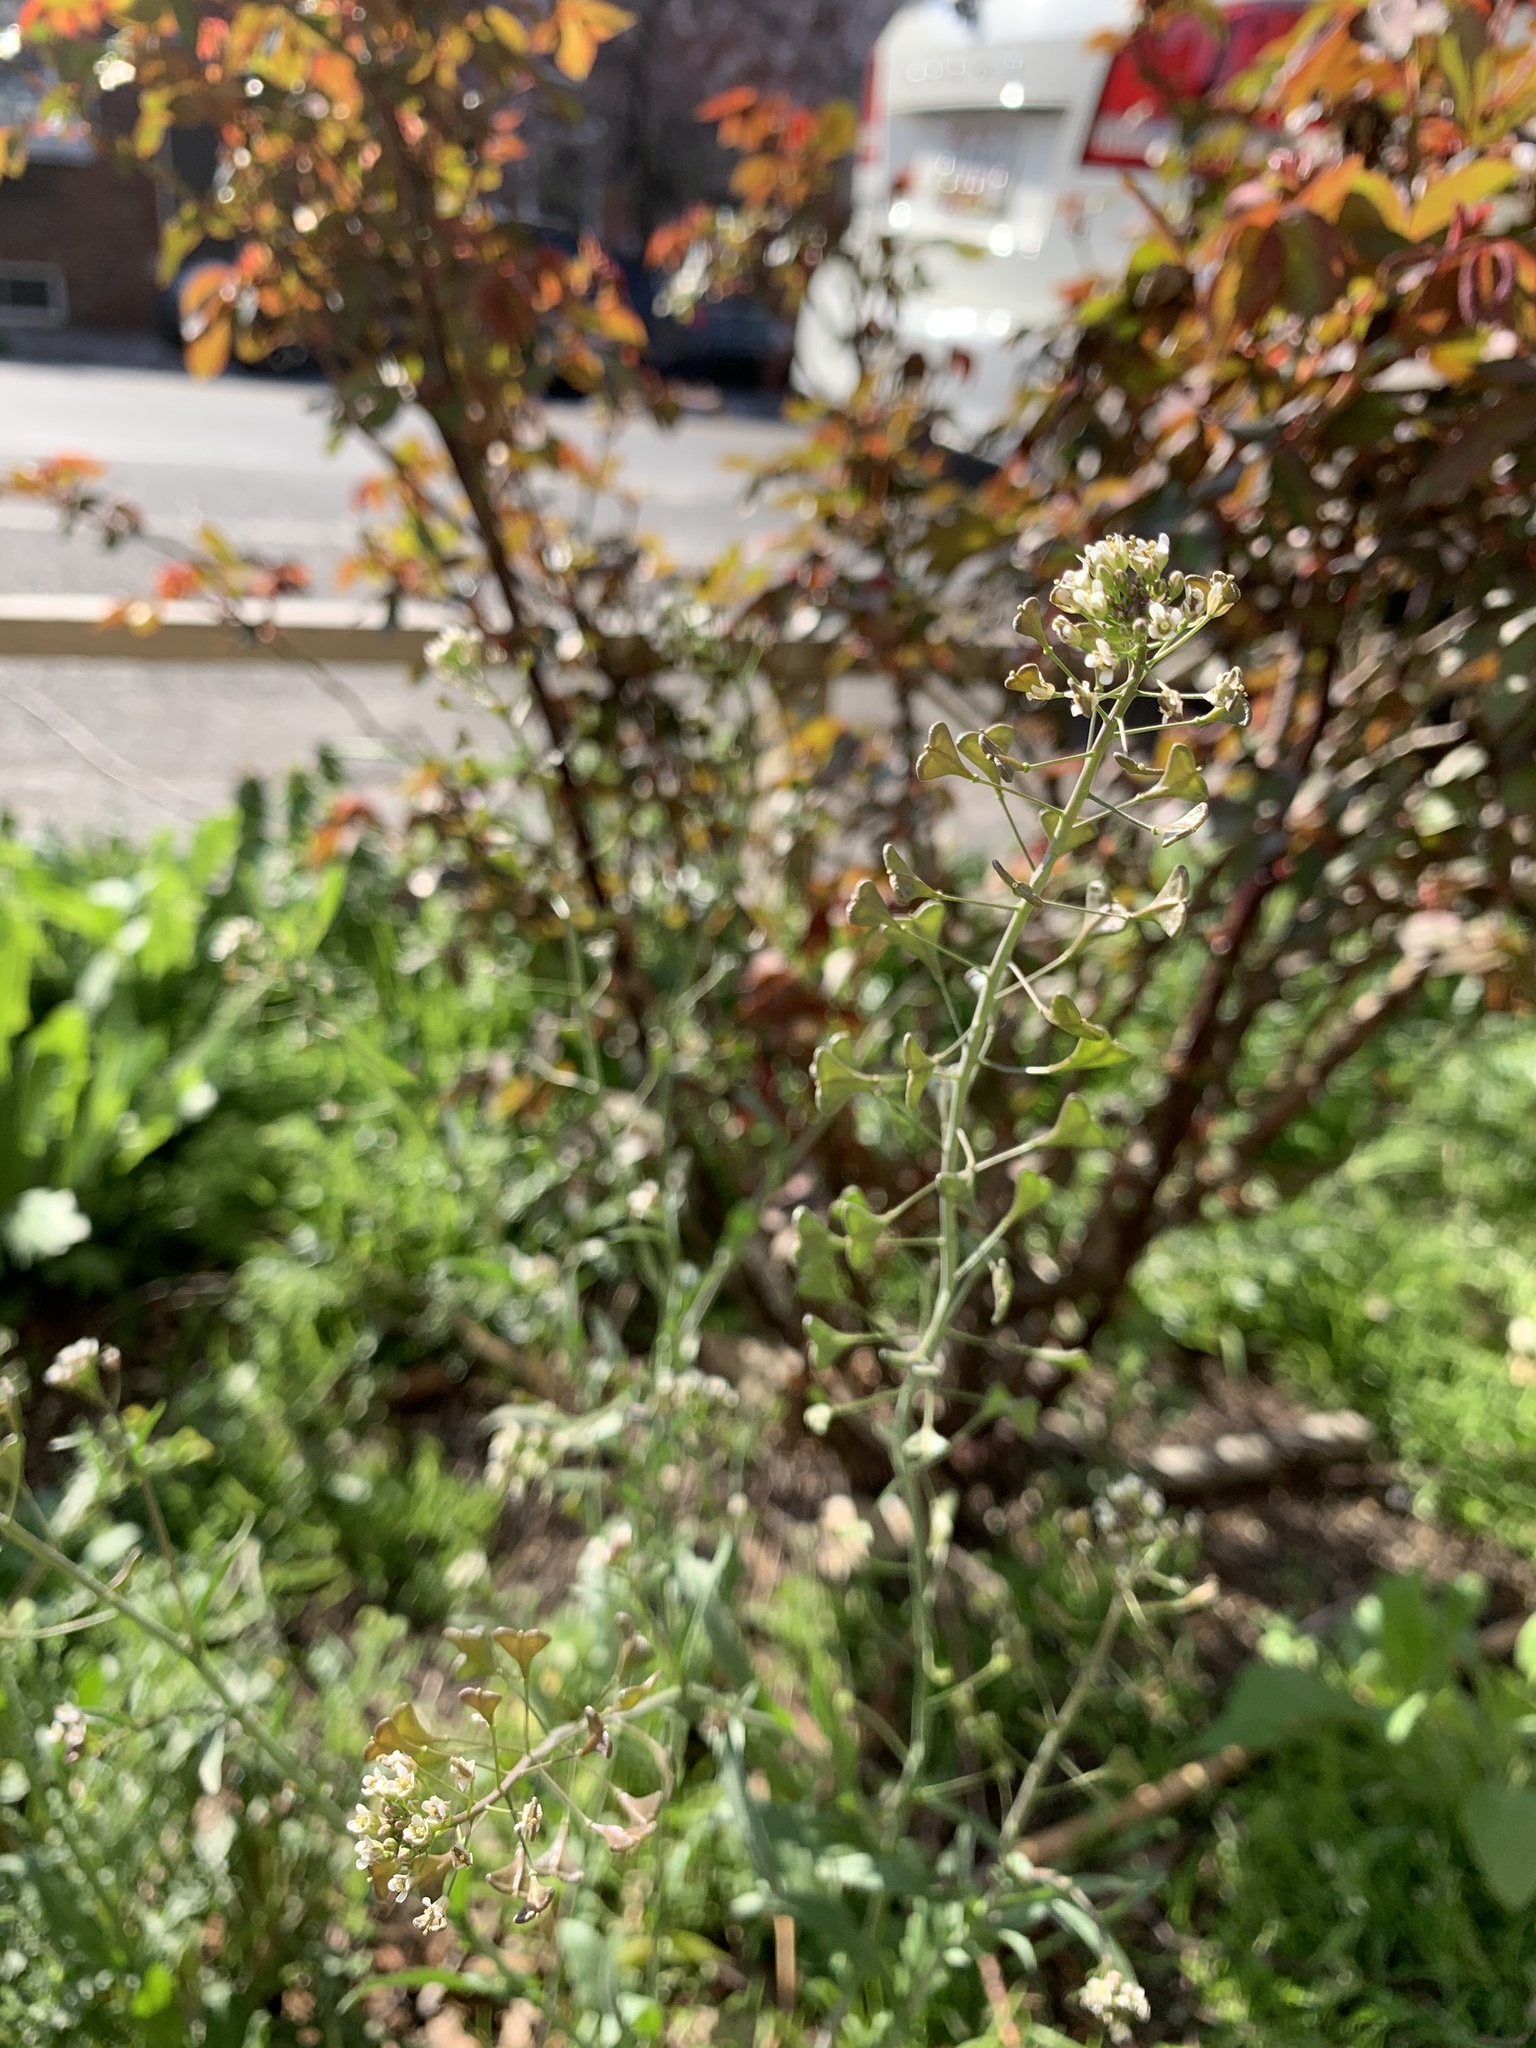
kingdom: Plantae
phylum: Tracheophyta
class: Magnoliopsida
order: Brassicales
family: Brassicaceae
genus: Capsella
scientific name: Capsella bursa-pastoris
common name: Shepherd's purse
